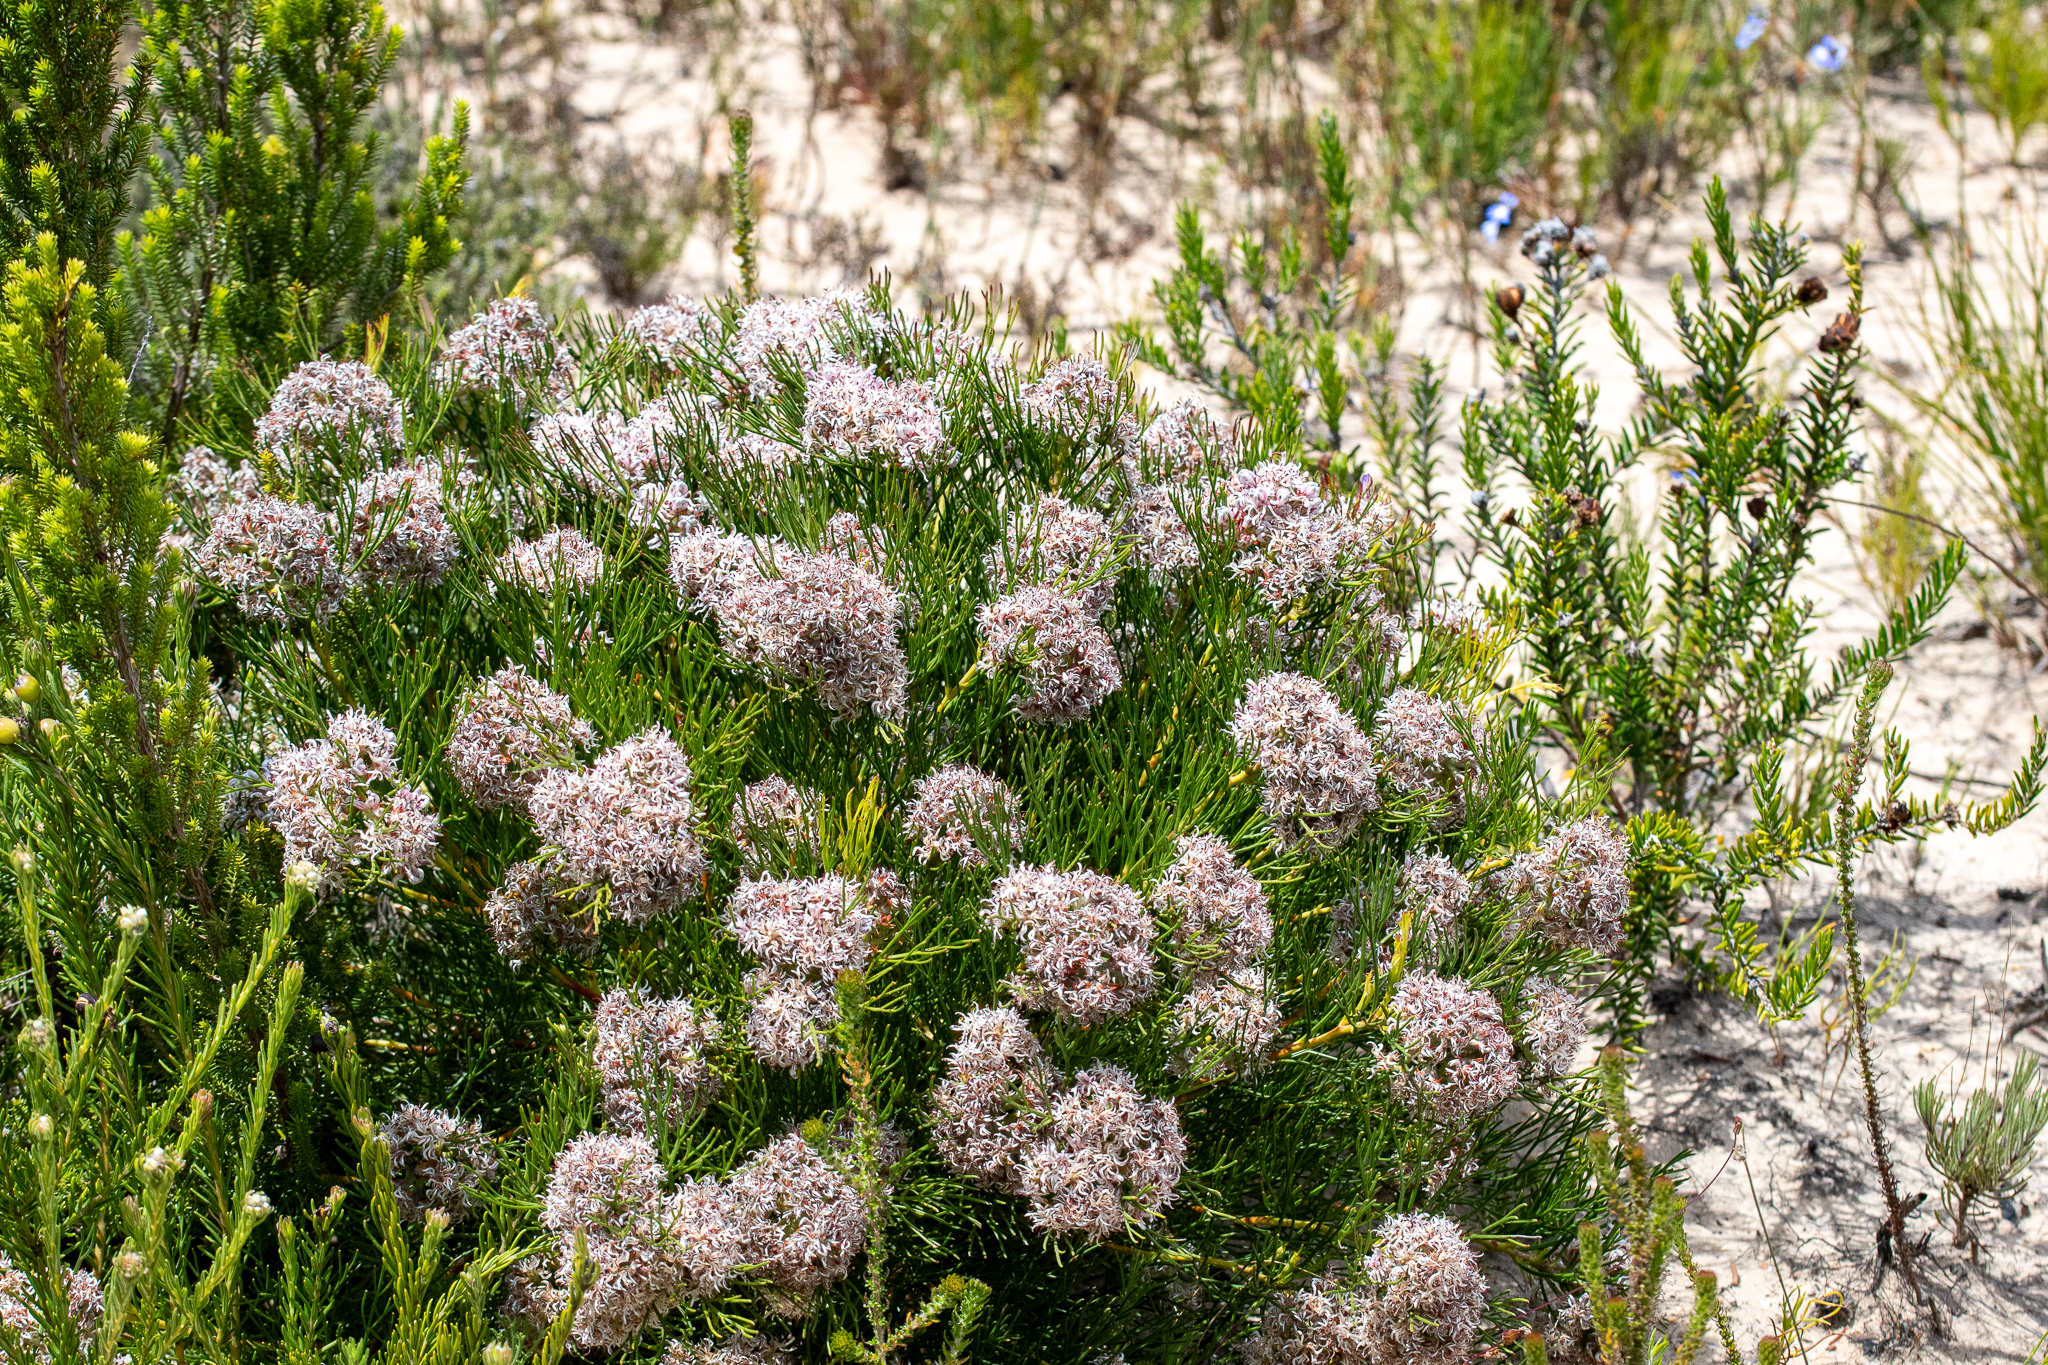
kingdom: Plantae
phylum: Tracheophyta
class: Magnoliopsida
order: Proteales
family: Proteaceae
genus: Serruria
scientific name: Serruria rubricaulis
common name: Red-stem spiderhead
